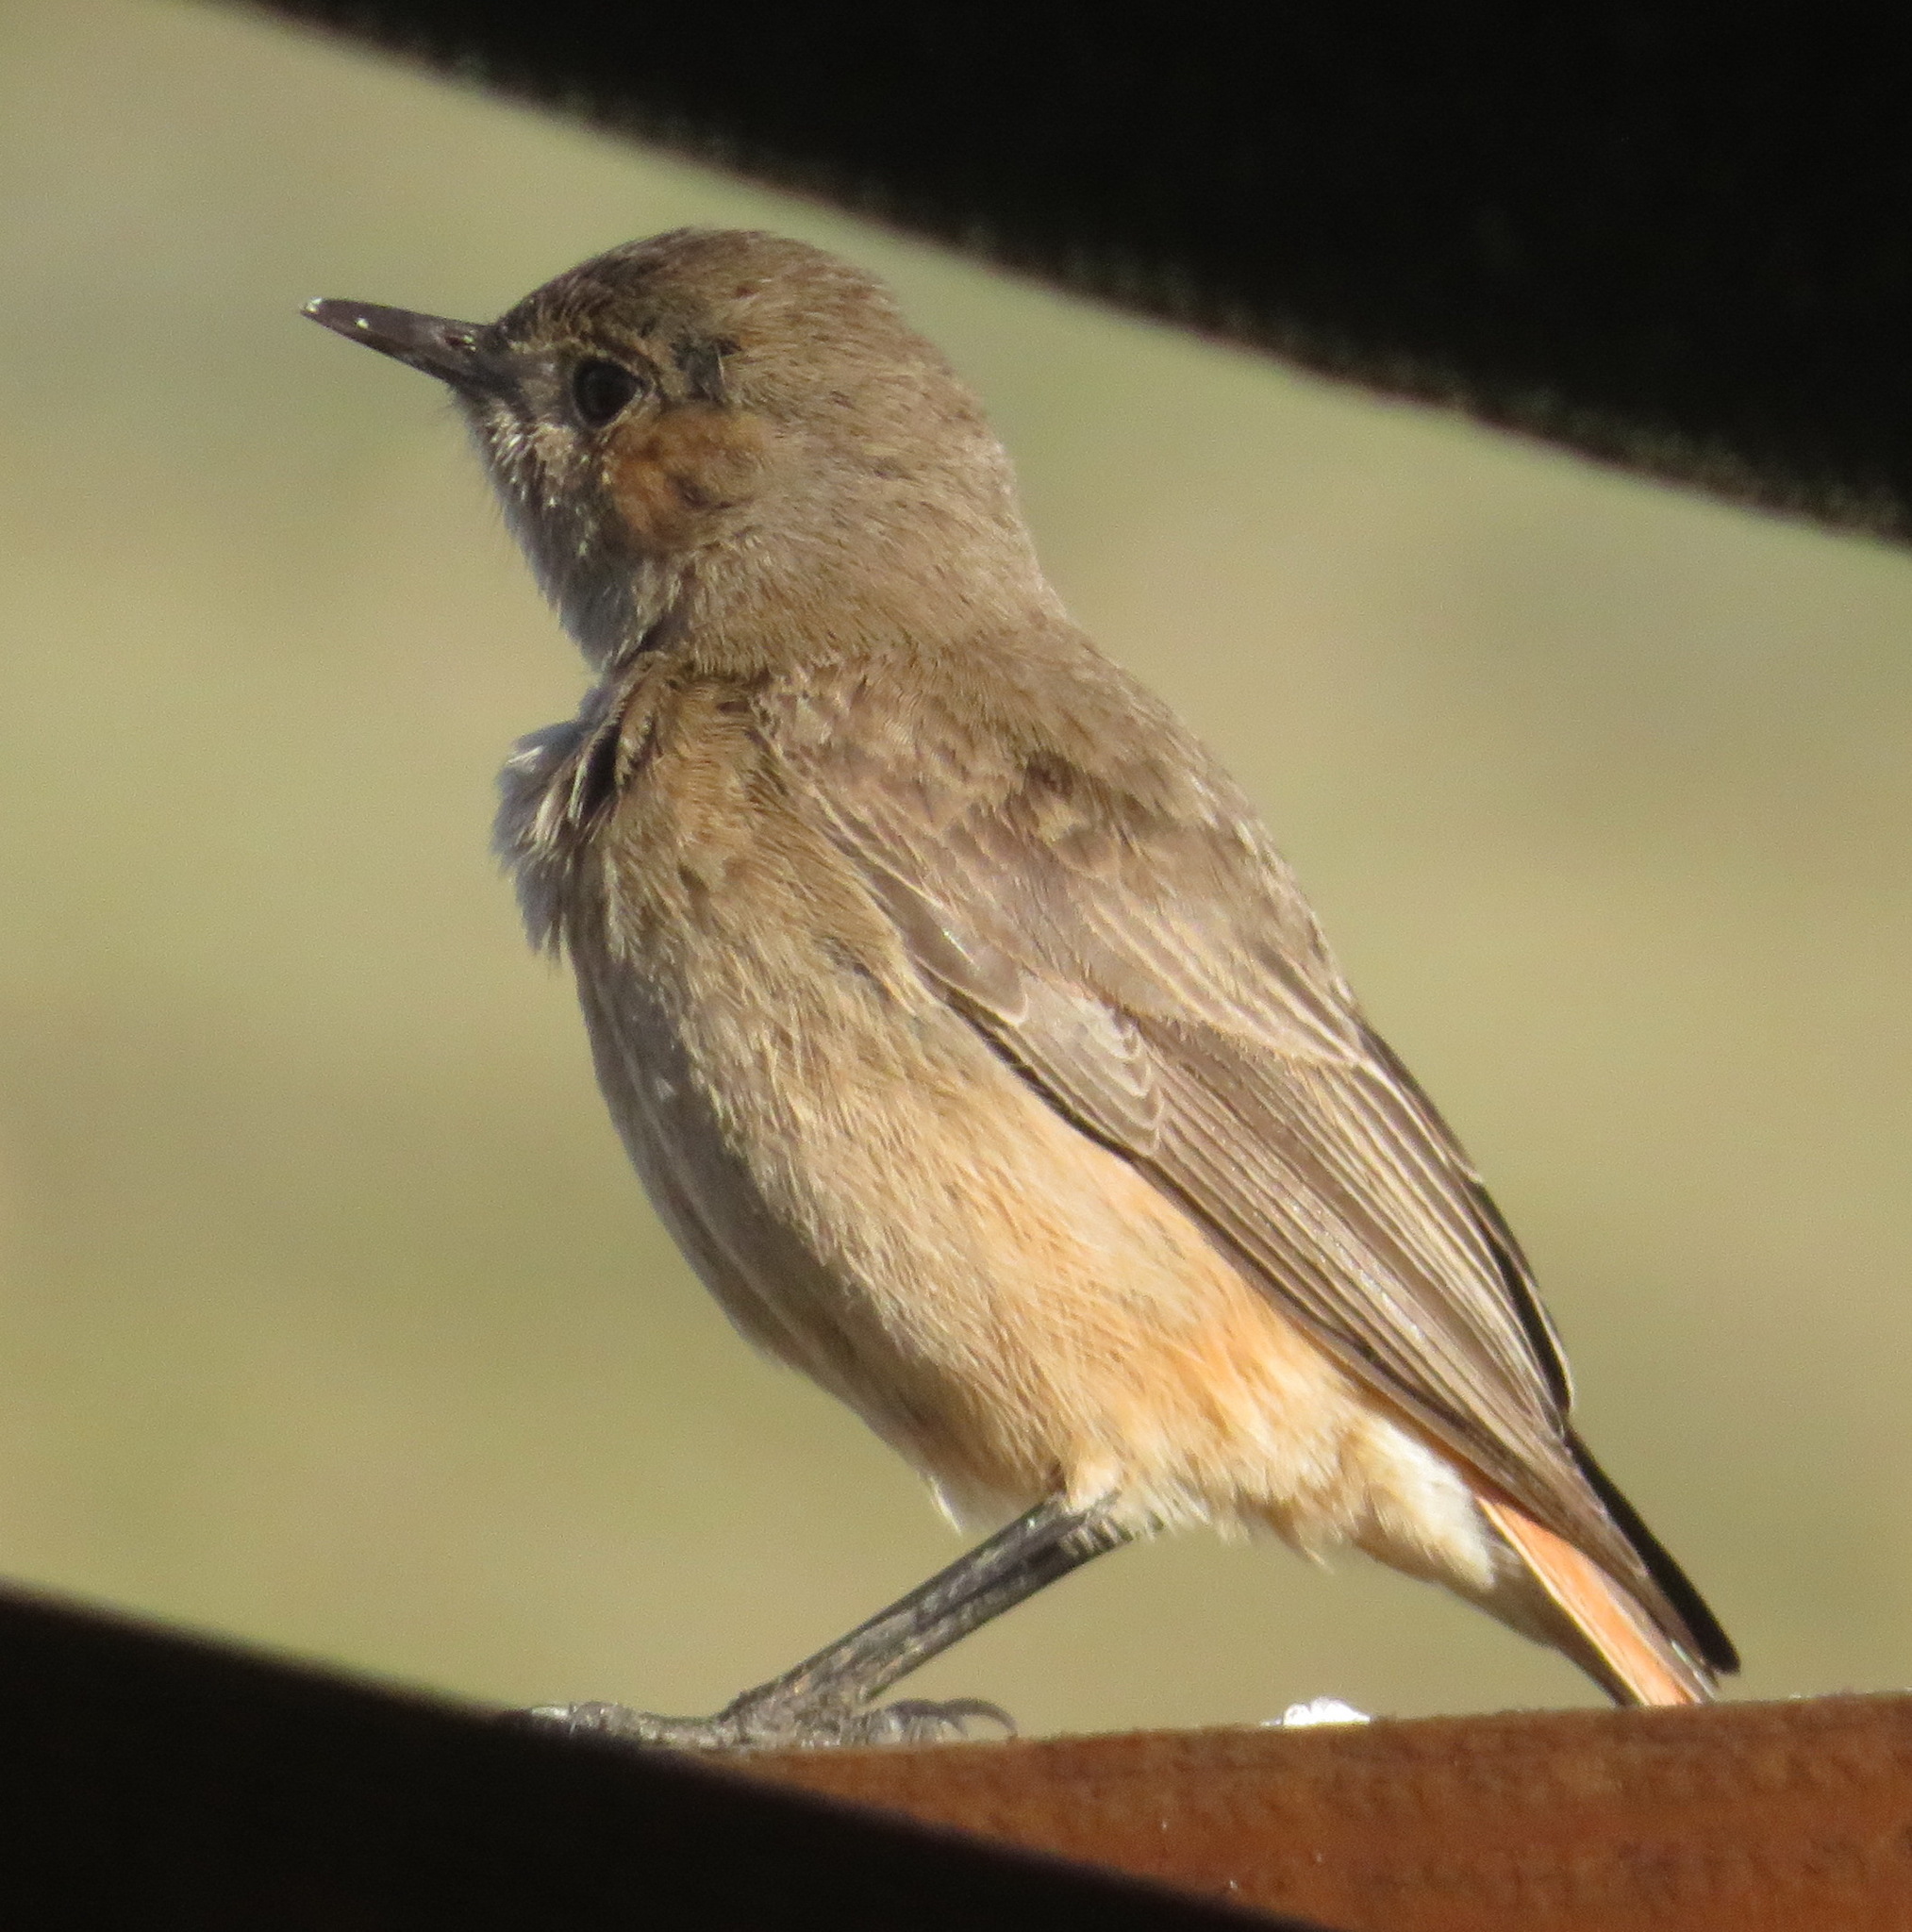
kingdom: Animalia
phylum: Chordata
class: Aves
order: Passeriformes
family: Muscicapidae
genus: Oenanthe
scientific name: Oenanthe familiaris
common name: Familiar chat
